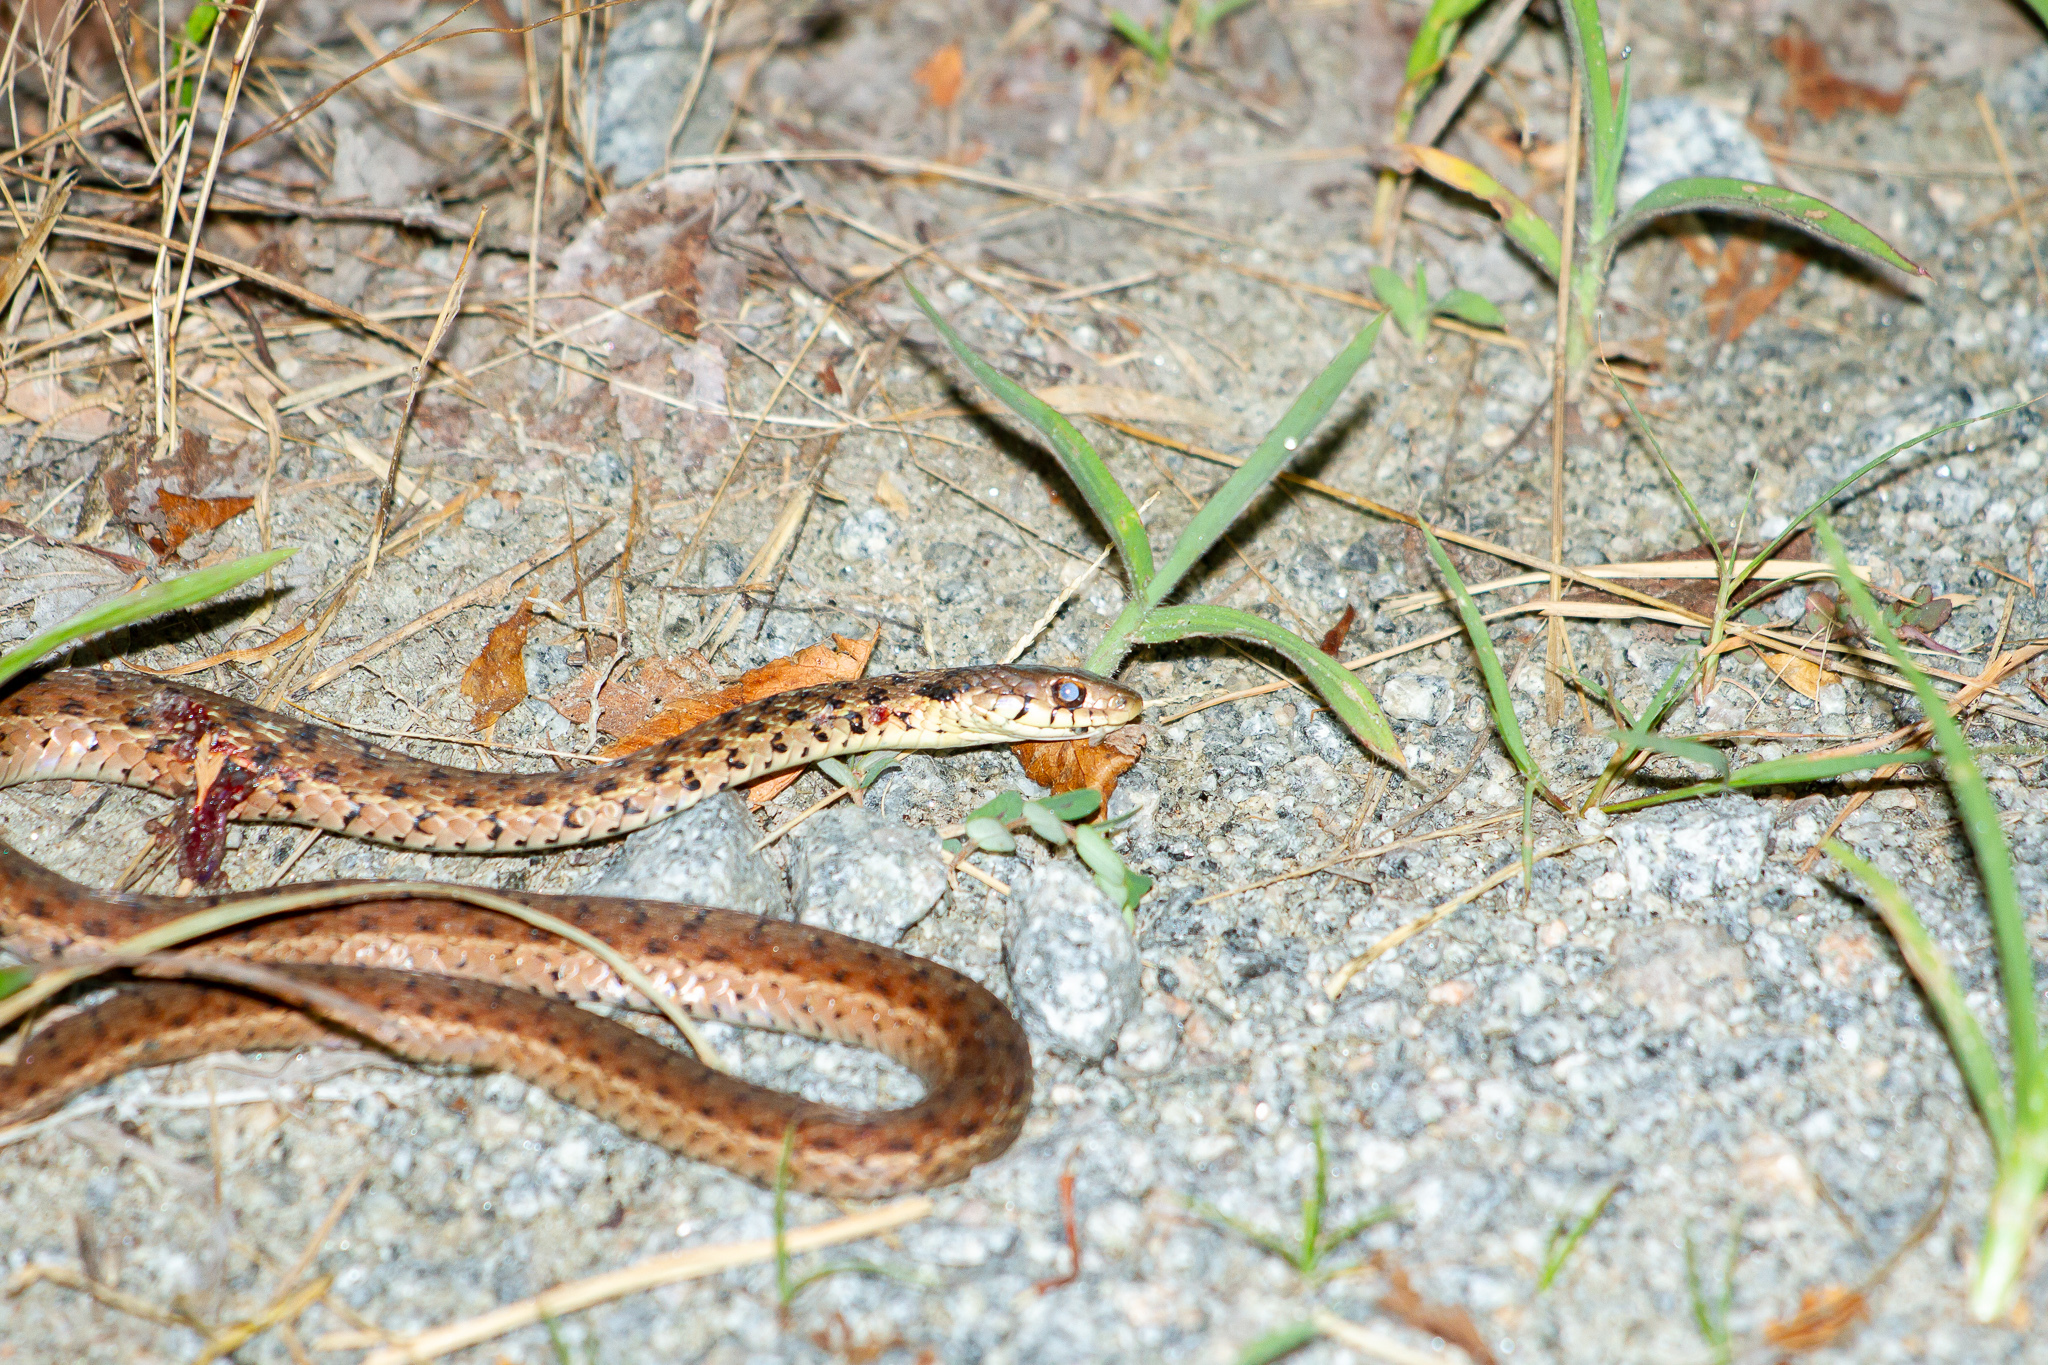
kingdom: Animalia
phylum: Chordata
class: Squamata
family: Colubridae
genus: Thamnophis
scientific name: Thamnophis sirtalis
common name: Common garter snake
